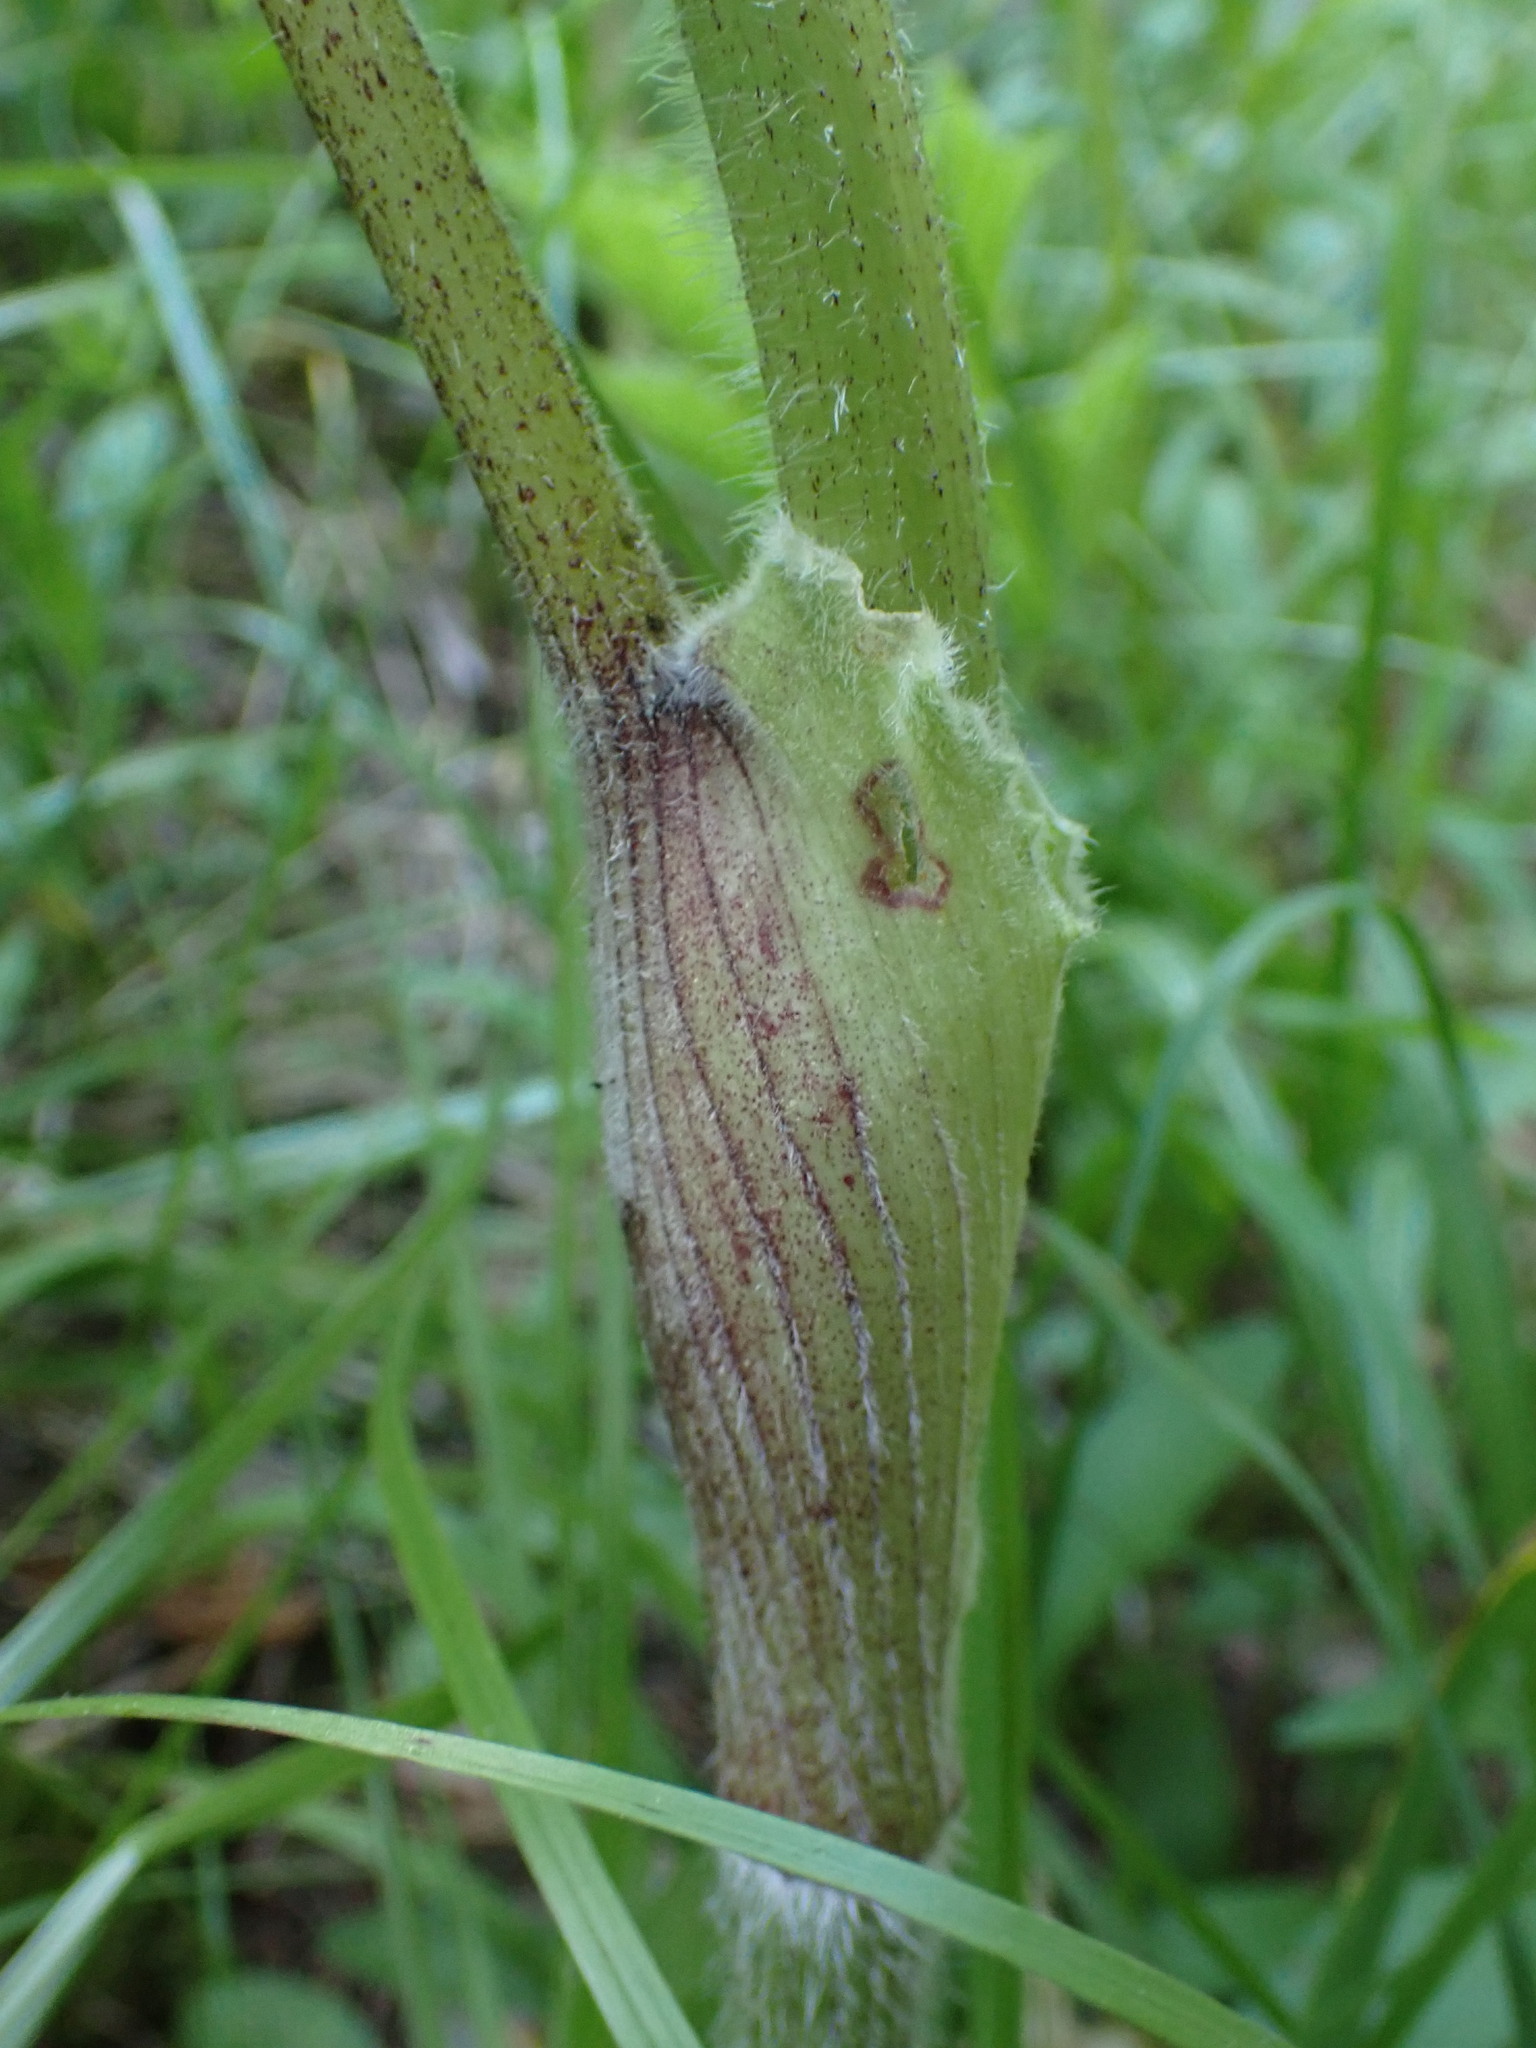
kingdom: Plantae
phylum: Tracheophyta
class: Magnoliopsida
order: Apiales
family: Apiaceae
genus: Heracleum
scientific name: Heracleum maximum
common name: American cow parsnip
